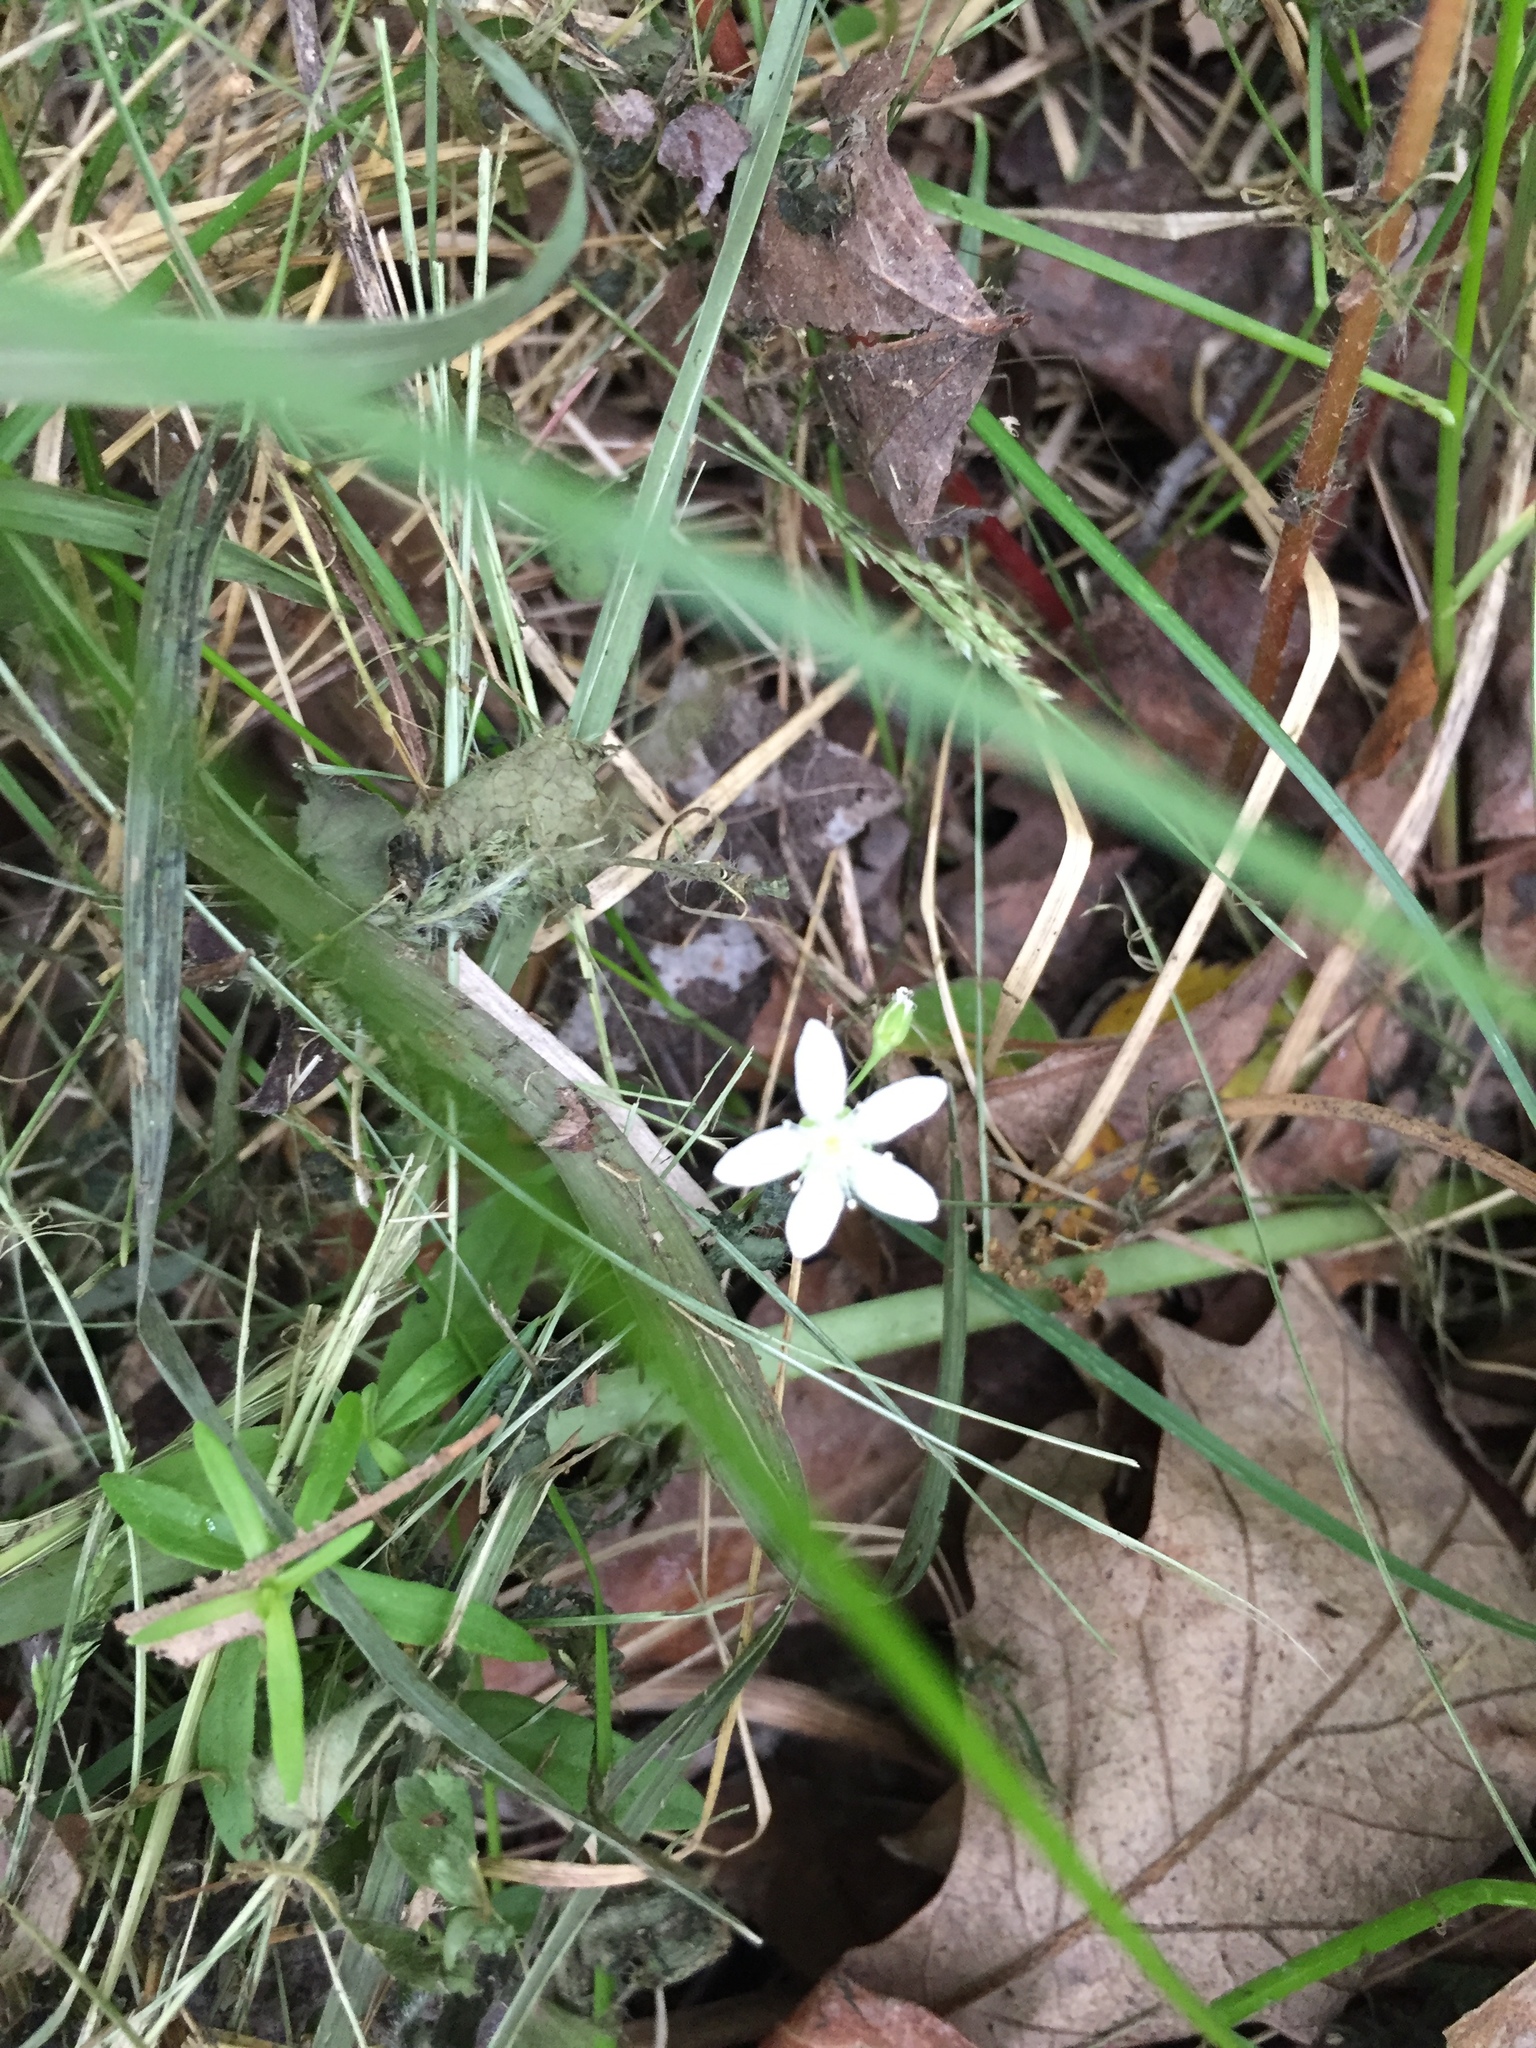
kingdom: Plantae
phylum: Tracheophyta
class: Magnoliopsida
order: Caryophyllales
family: Caryophyllaceae
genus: Moehringia
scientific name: Moehringia lateriflora
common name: Blunt-leaved sandwort
